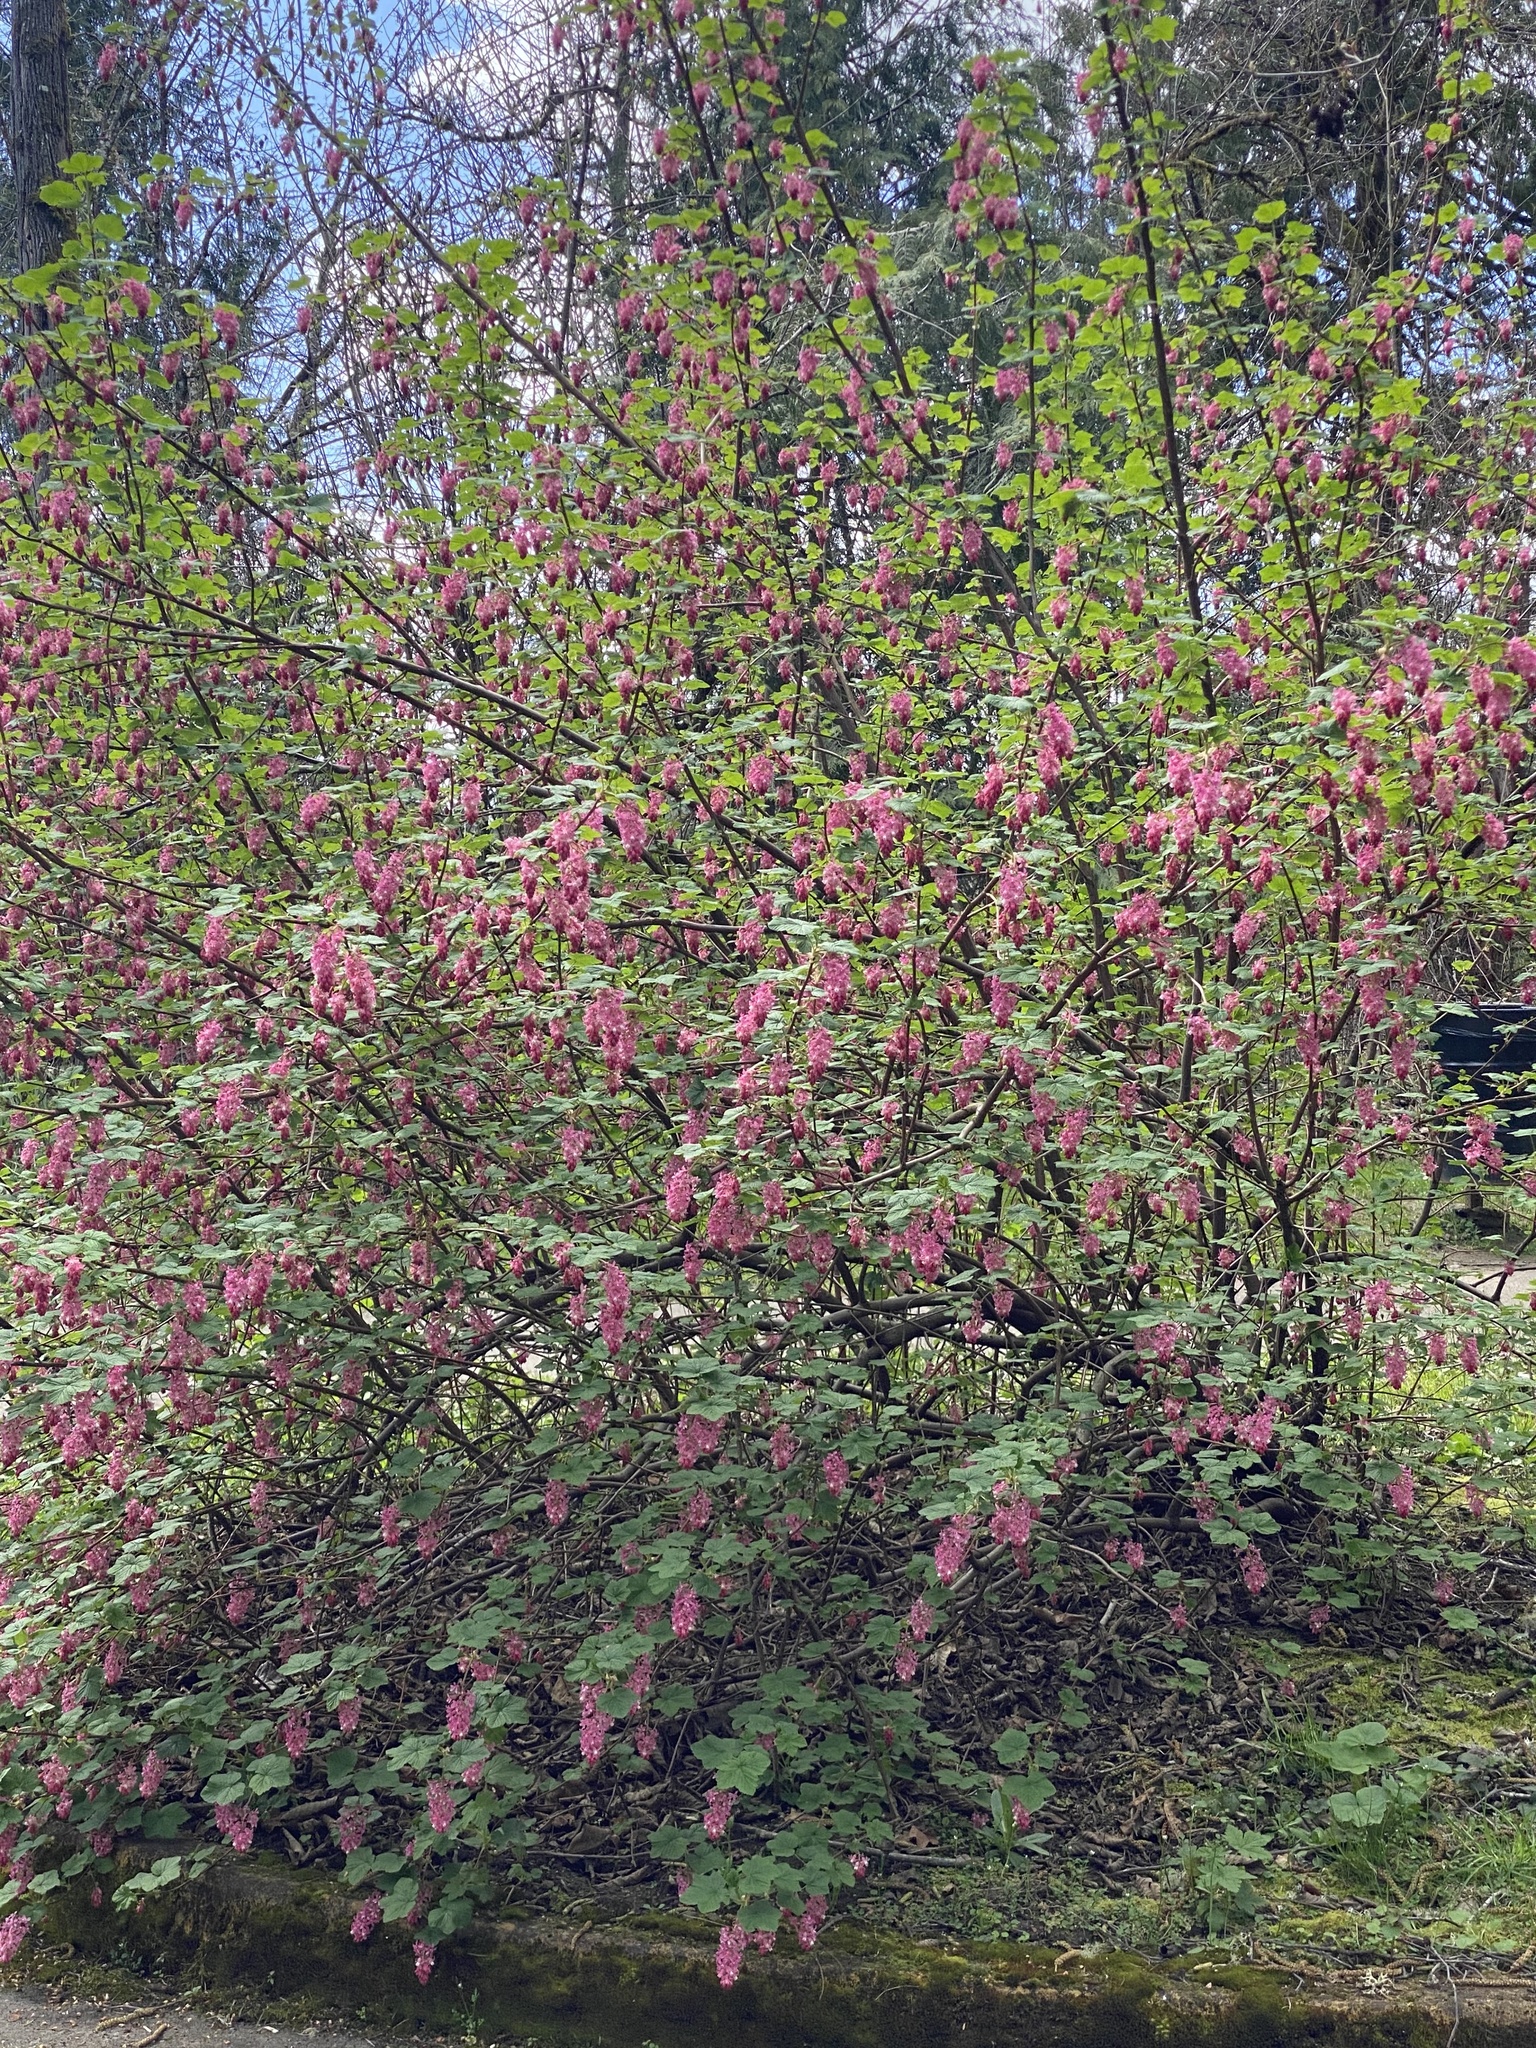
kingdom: Plantae
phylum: Tracheophyta
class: Magnoliopsida
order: Saxifragales
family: Grossulariaceae
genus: Ribes
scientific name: Ribes sanguineum
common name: Flowering currant
